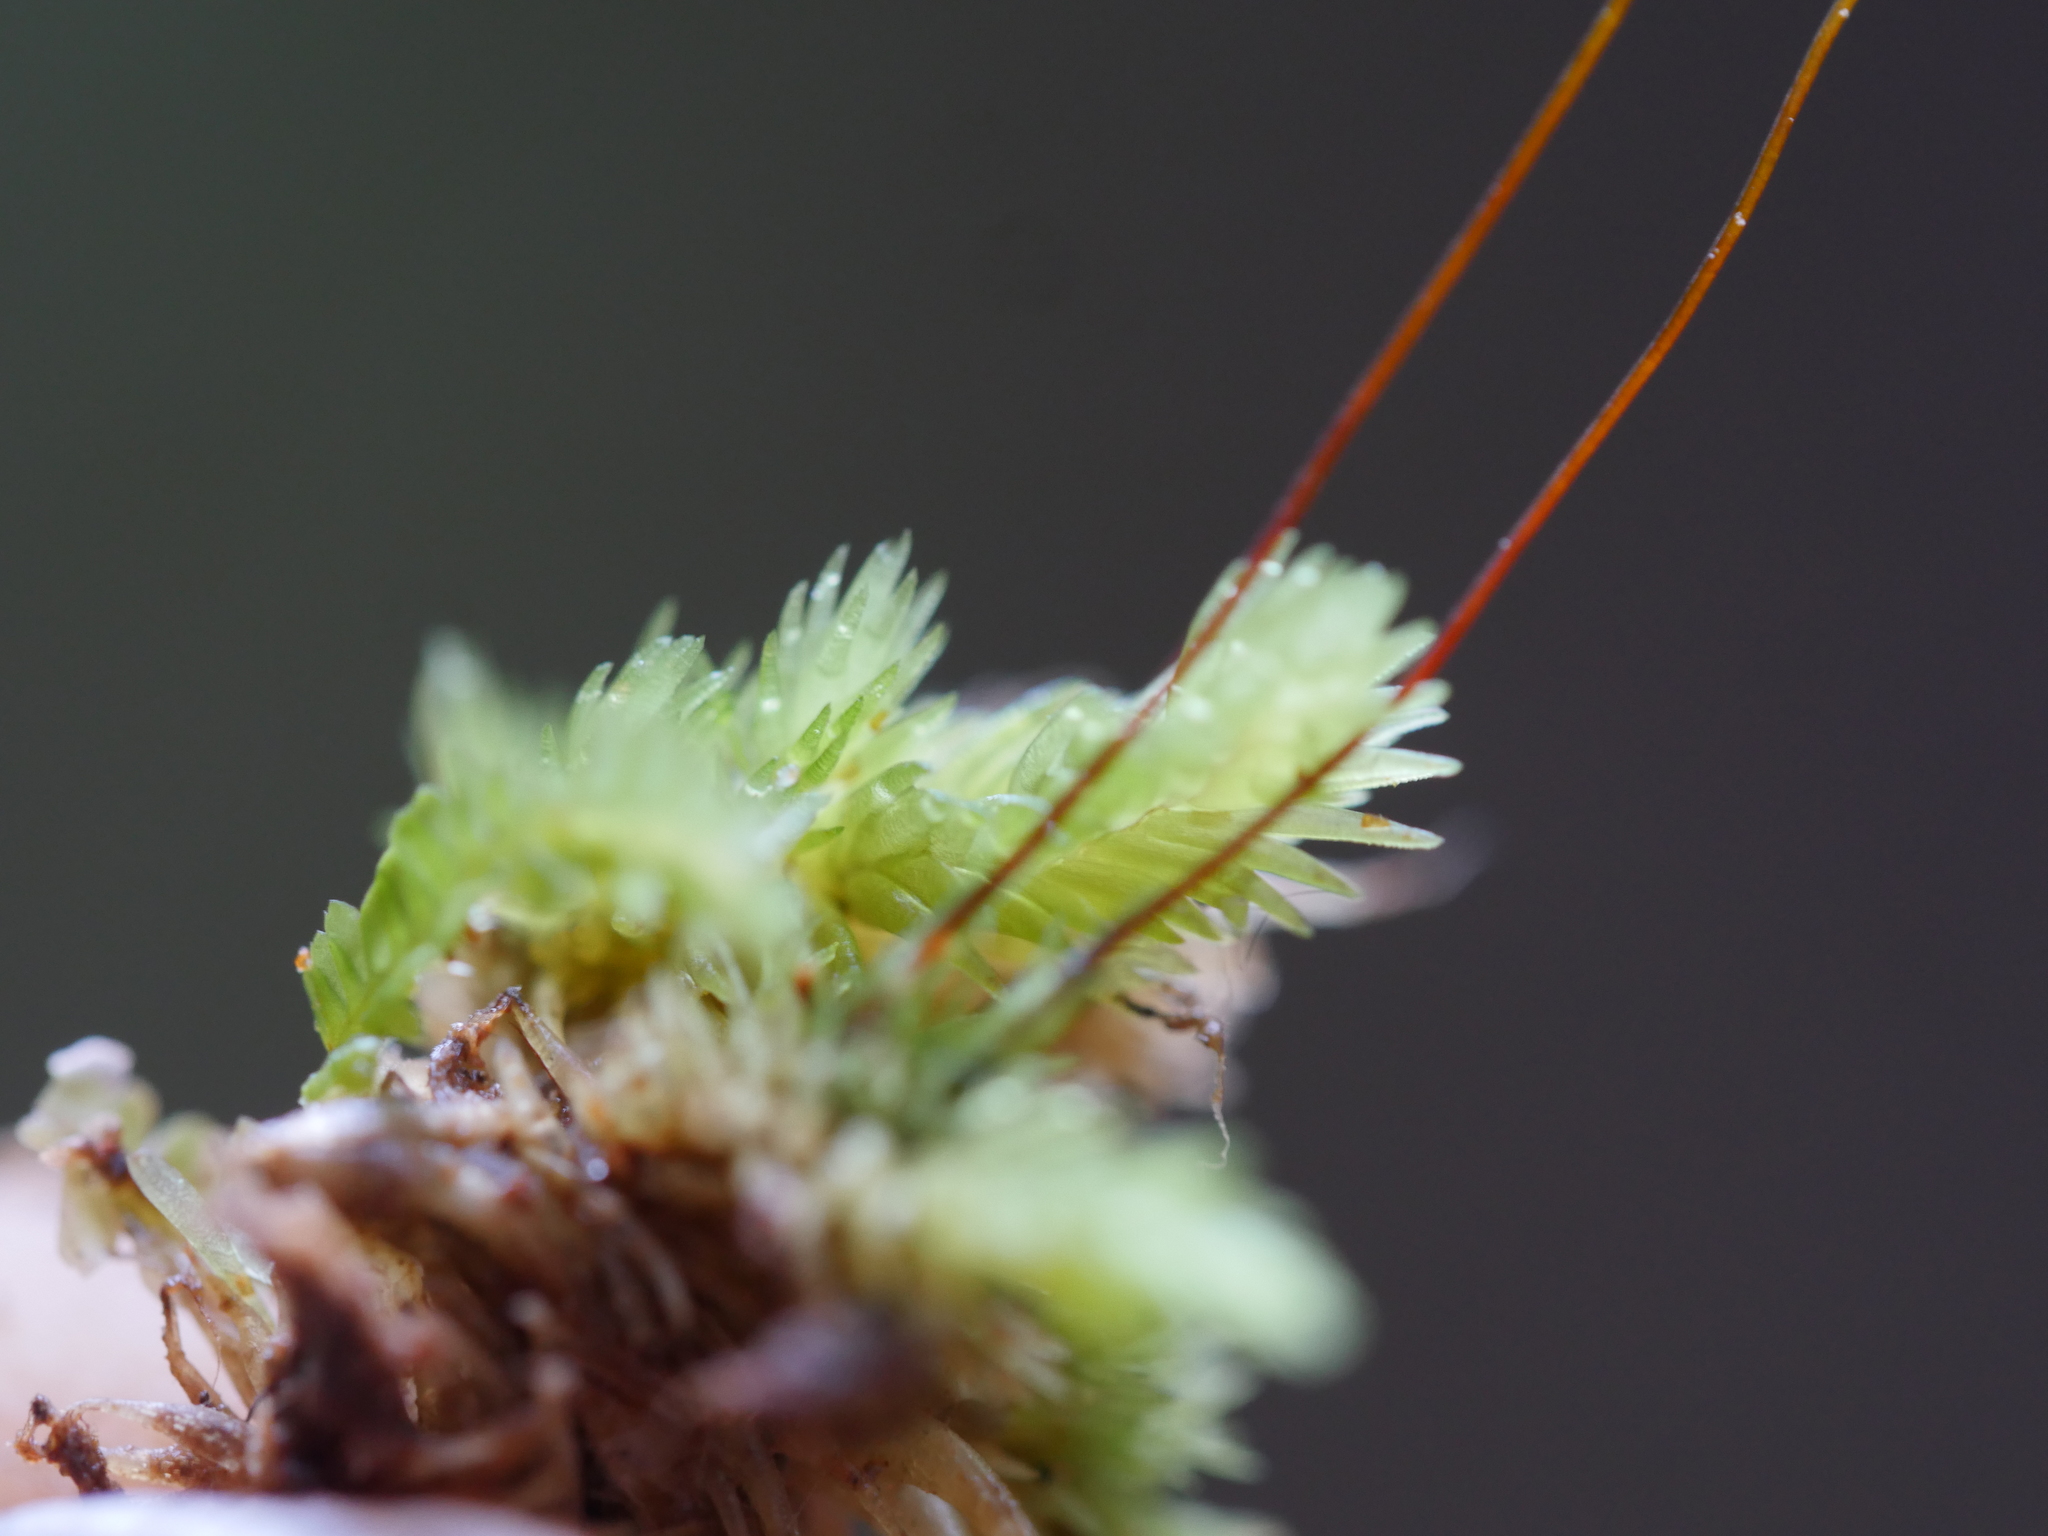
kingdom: Plantae
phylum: Bryophyta
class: Bryopsida
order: Dicranales
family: Leucobryaceae
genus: Leucobryum
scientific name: Leucobryum javense
